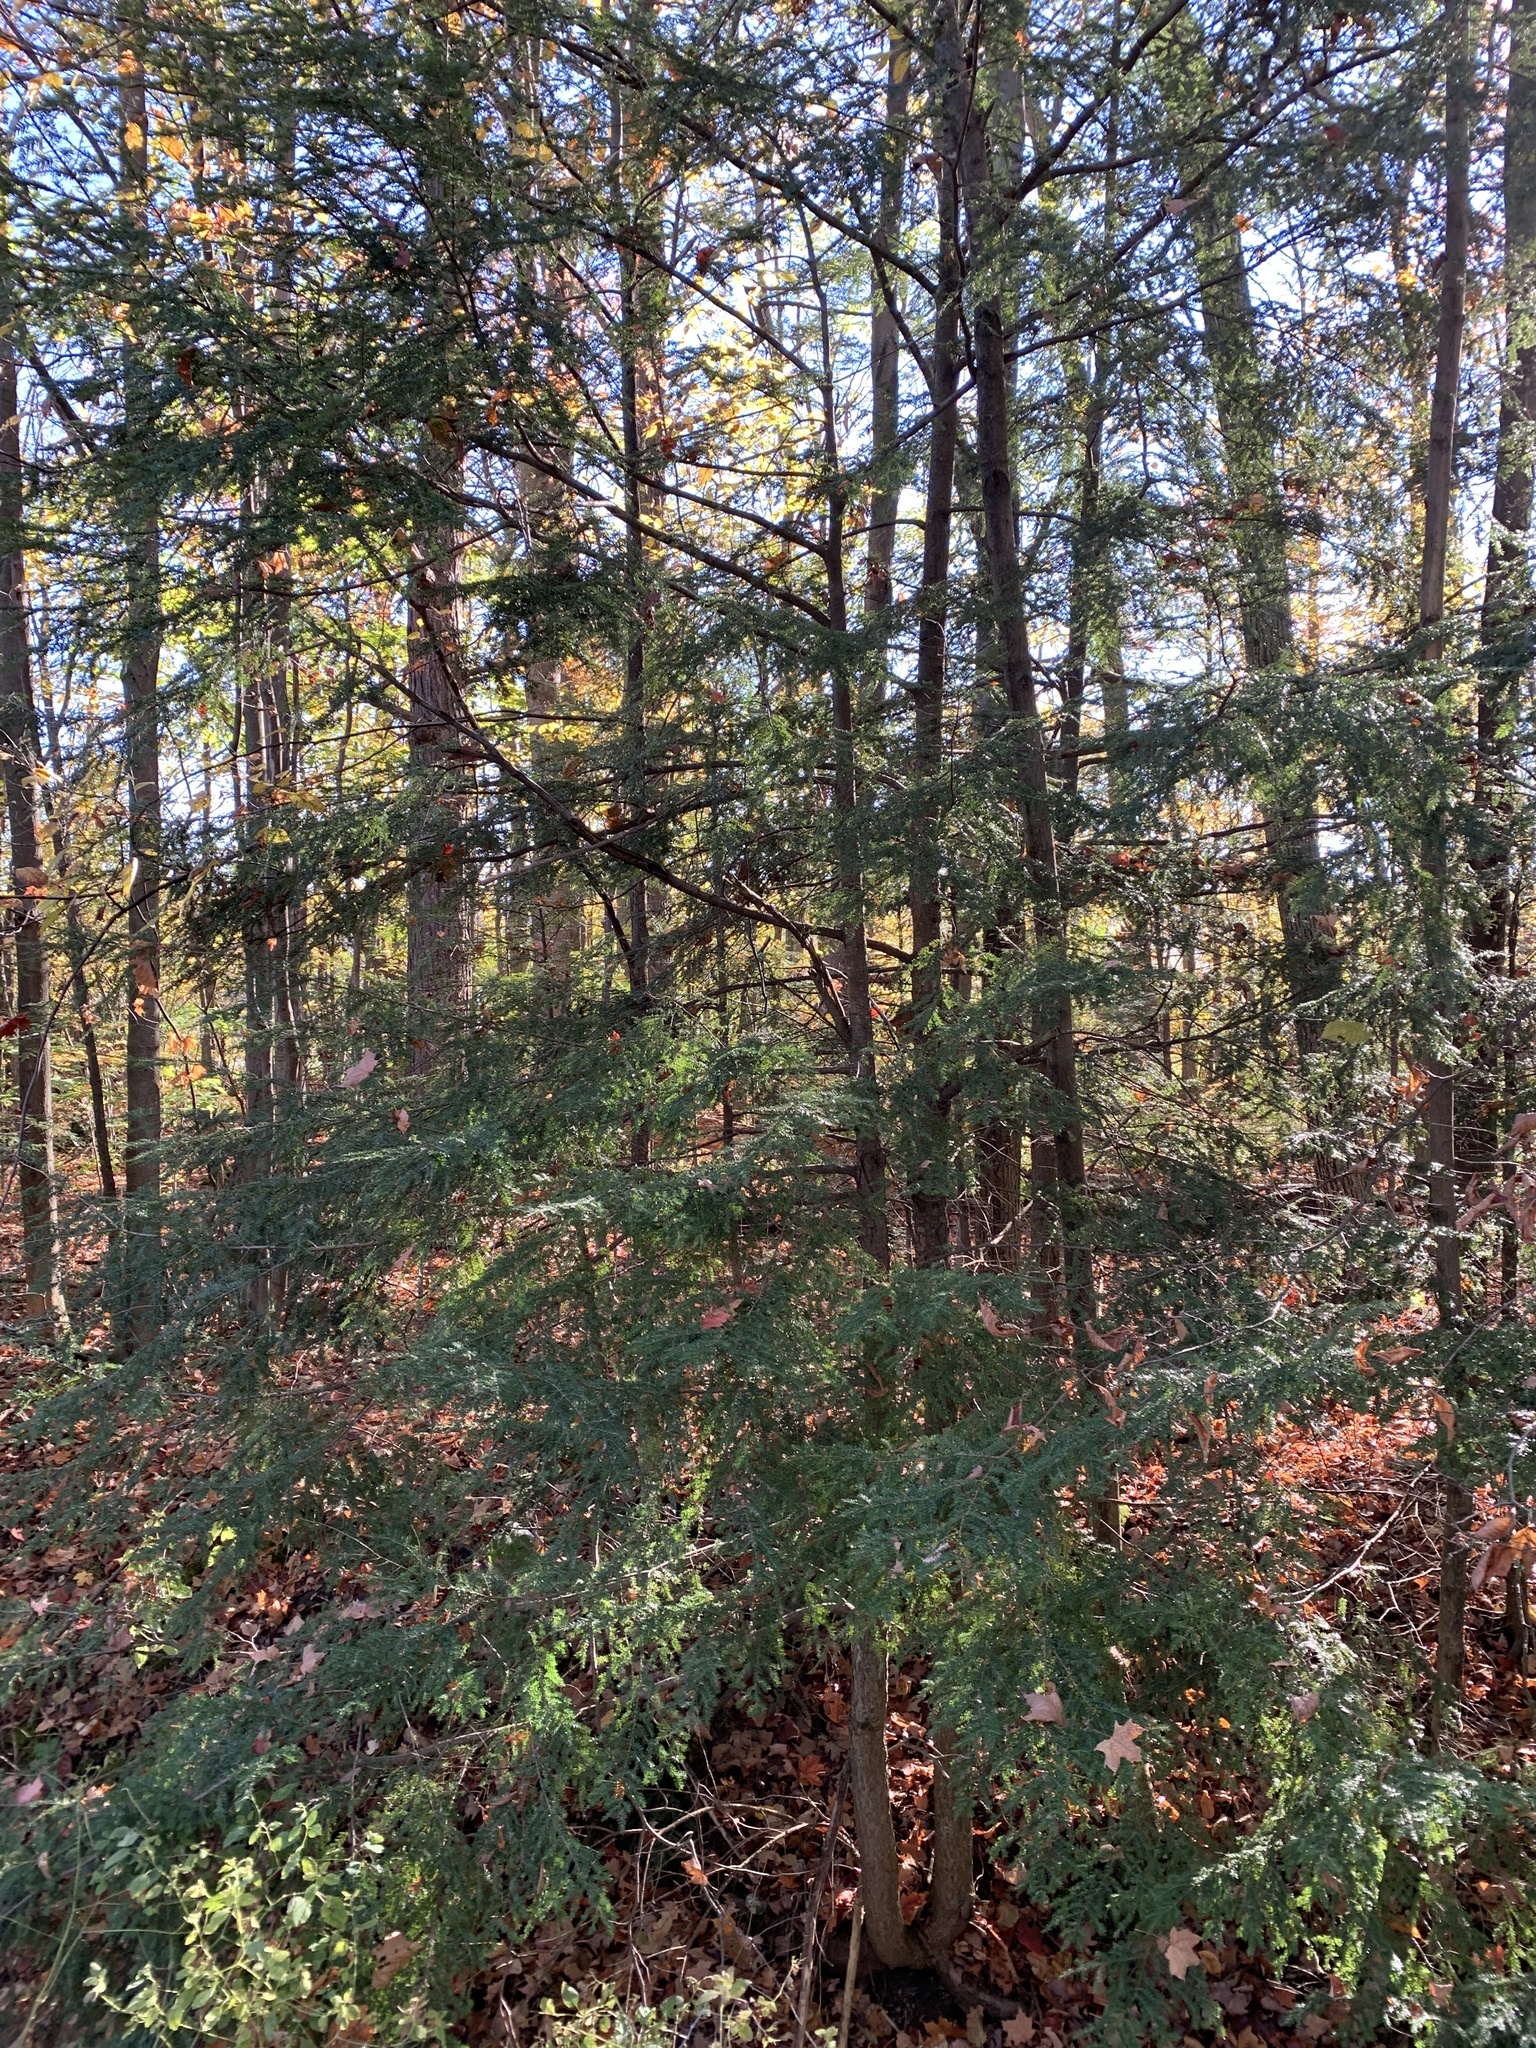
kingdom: Plantae
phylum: Tracheophyta
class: Pinopsida
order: Pinales
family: Pinaceae
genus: Tsuga
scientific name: Tsuga canadensis
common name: Eastern hemlock
